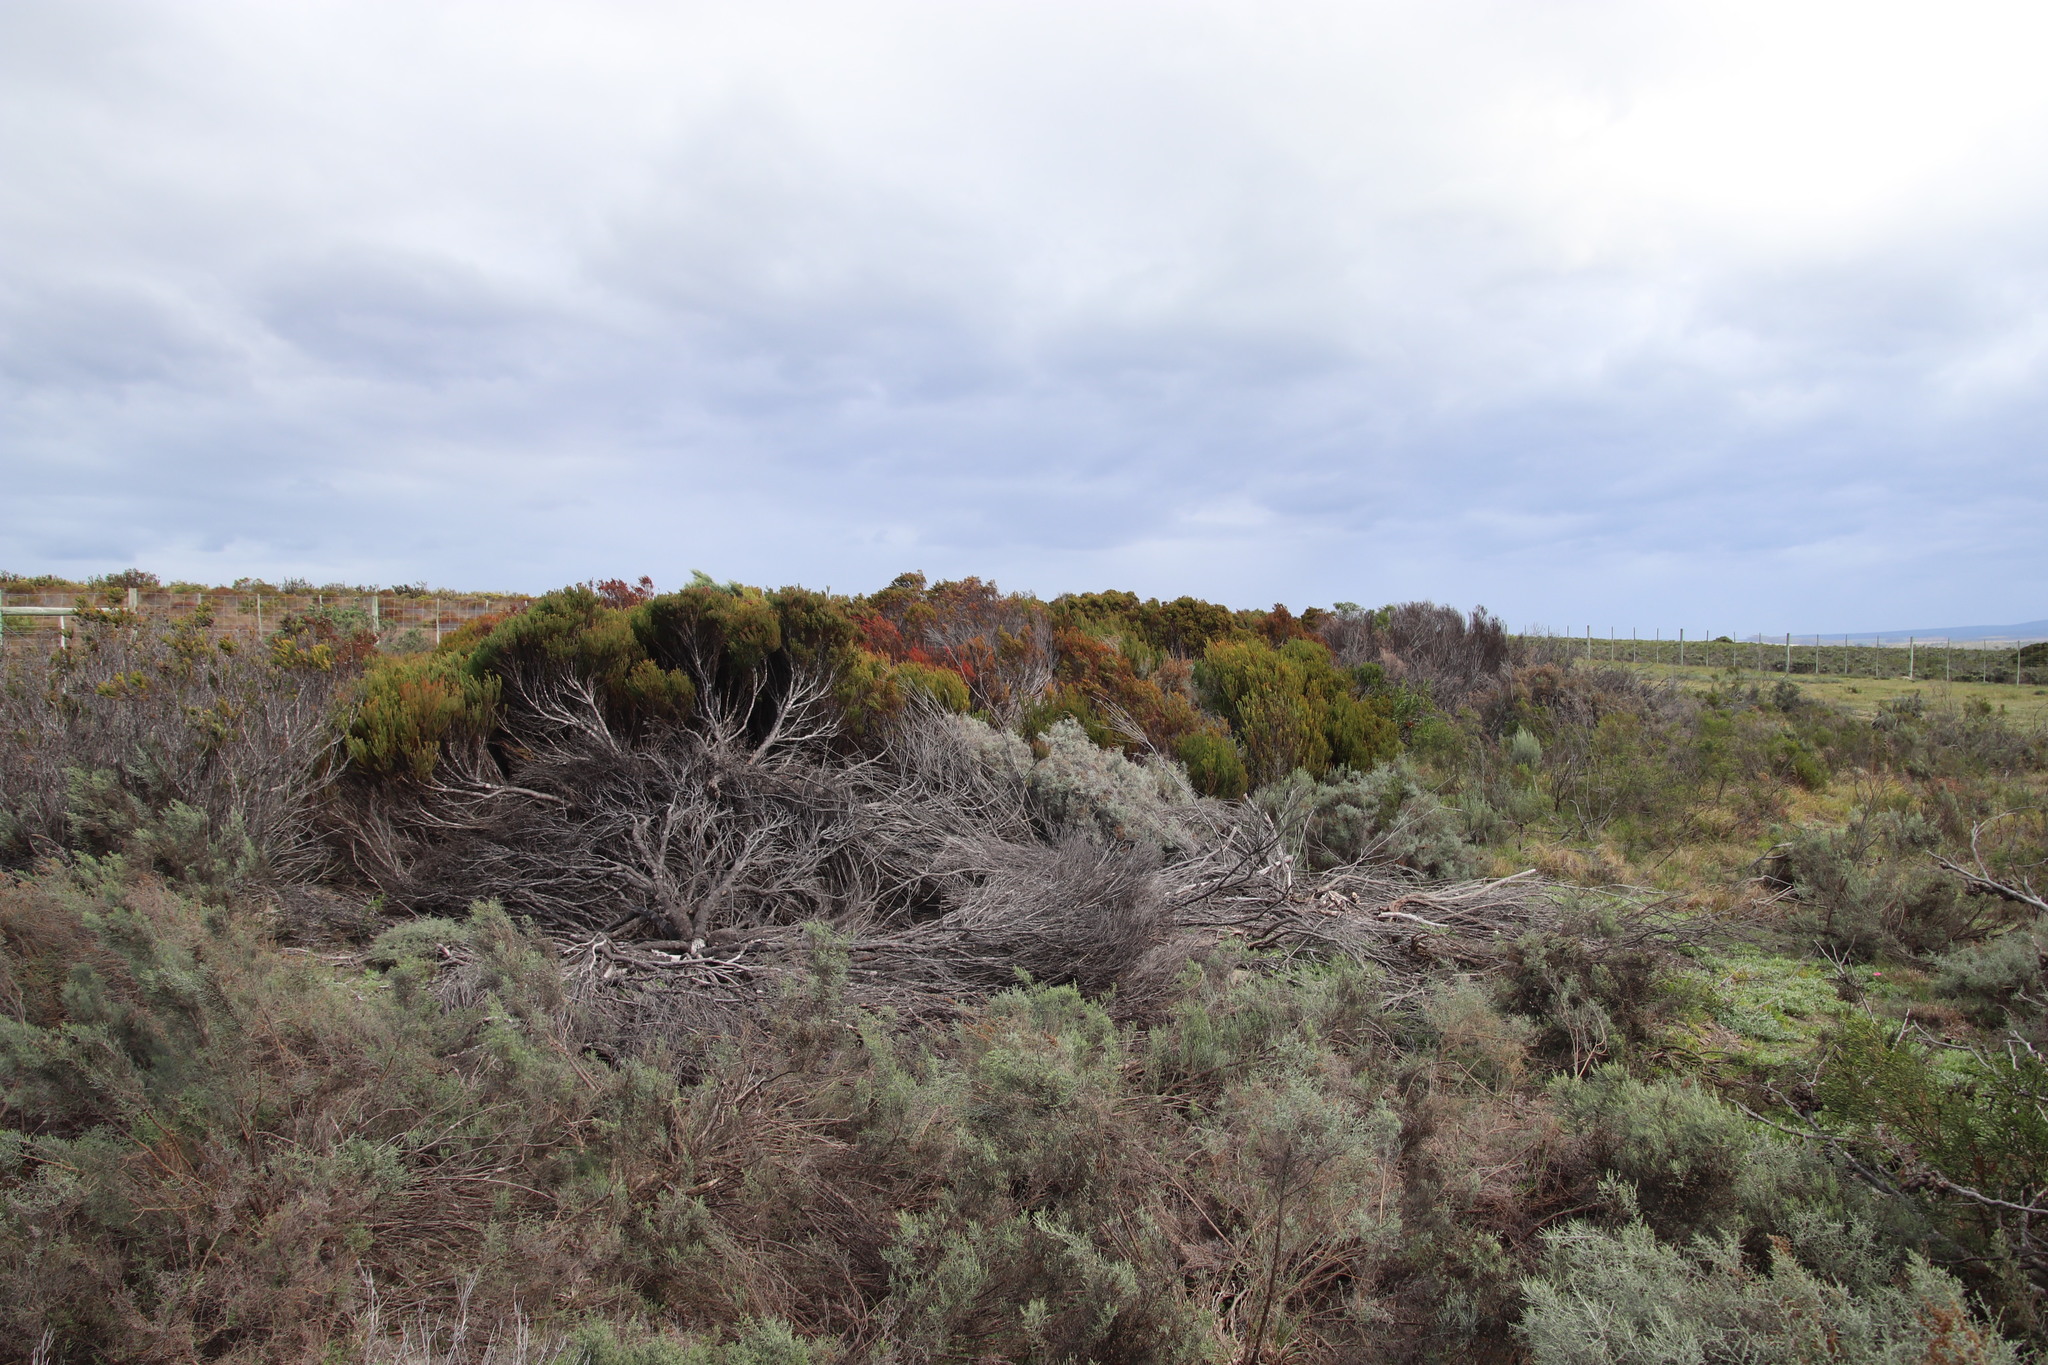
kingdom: Plantae
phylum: Tracheophyta
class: Magnoliopsida
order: Proteales
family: Proteaceae
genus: Leucadendron
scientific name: Leucadendron linifolium
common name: Line-leaf conebush
